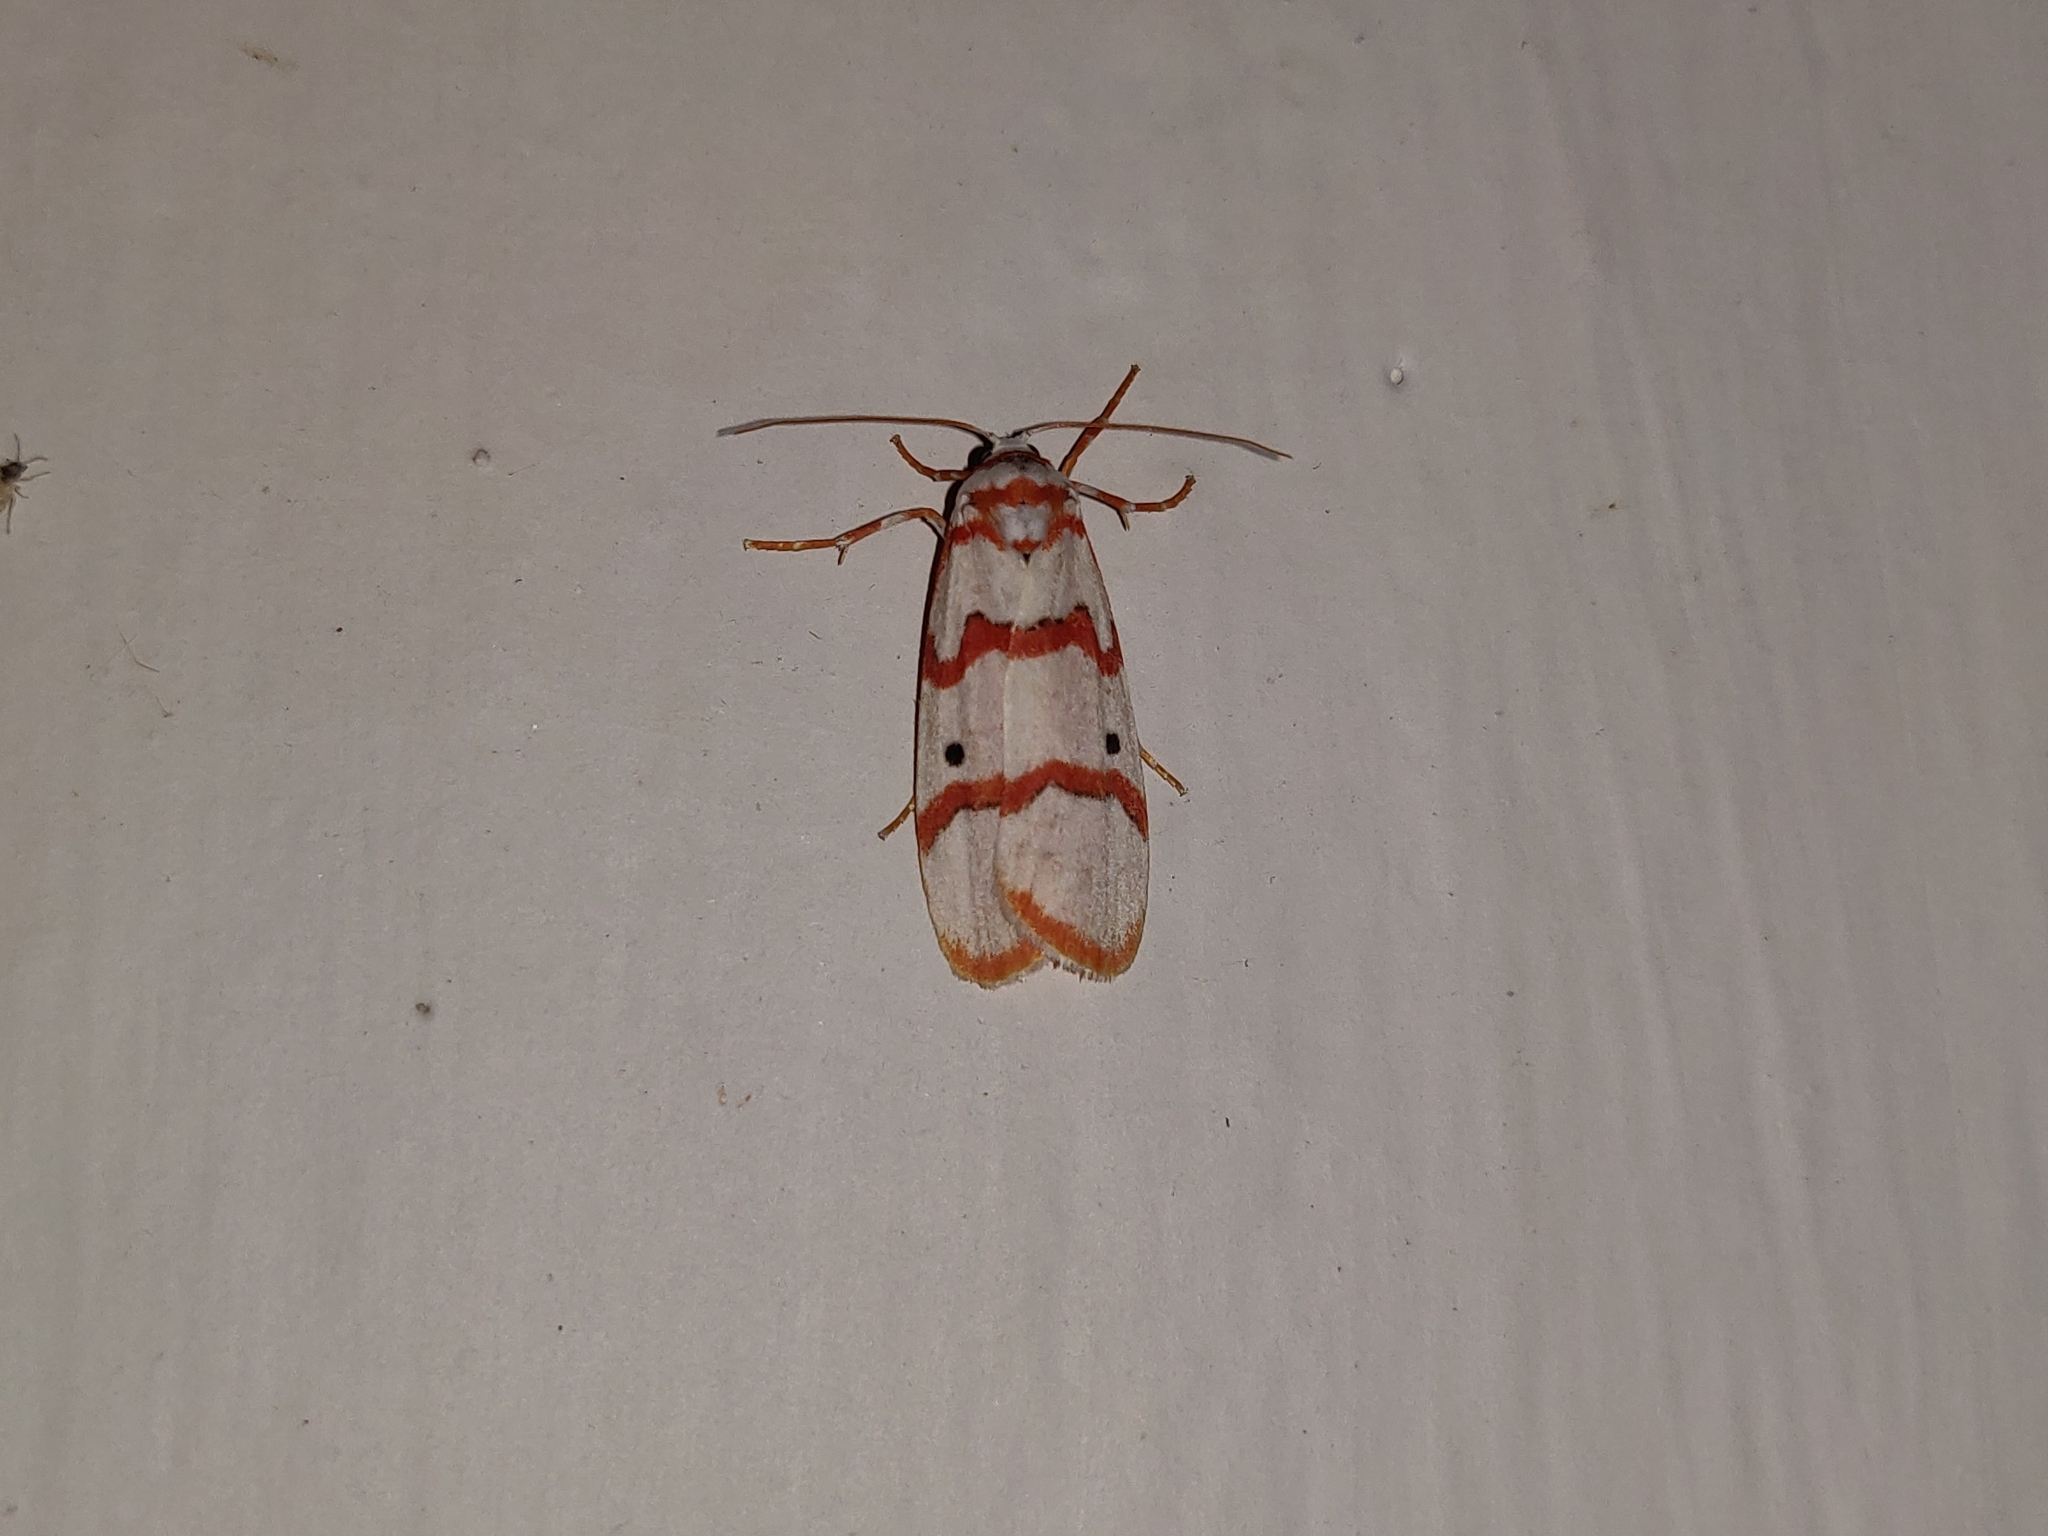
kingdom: Animalia
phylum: Arthropoda
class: Insecta
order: Lepidoptera
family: Erebidae
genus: Cyana
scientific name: Cyana puella
